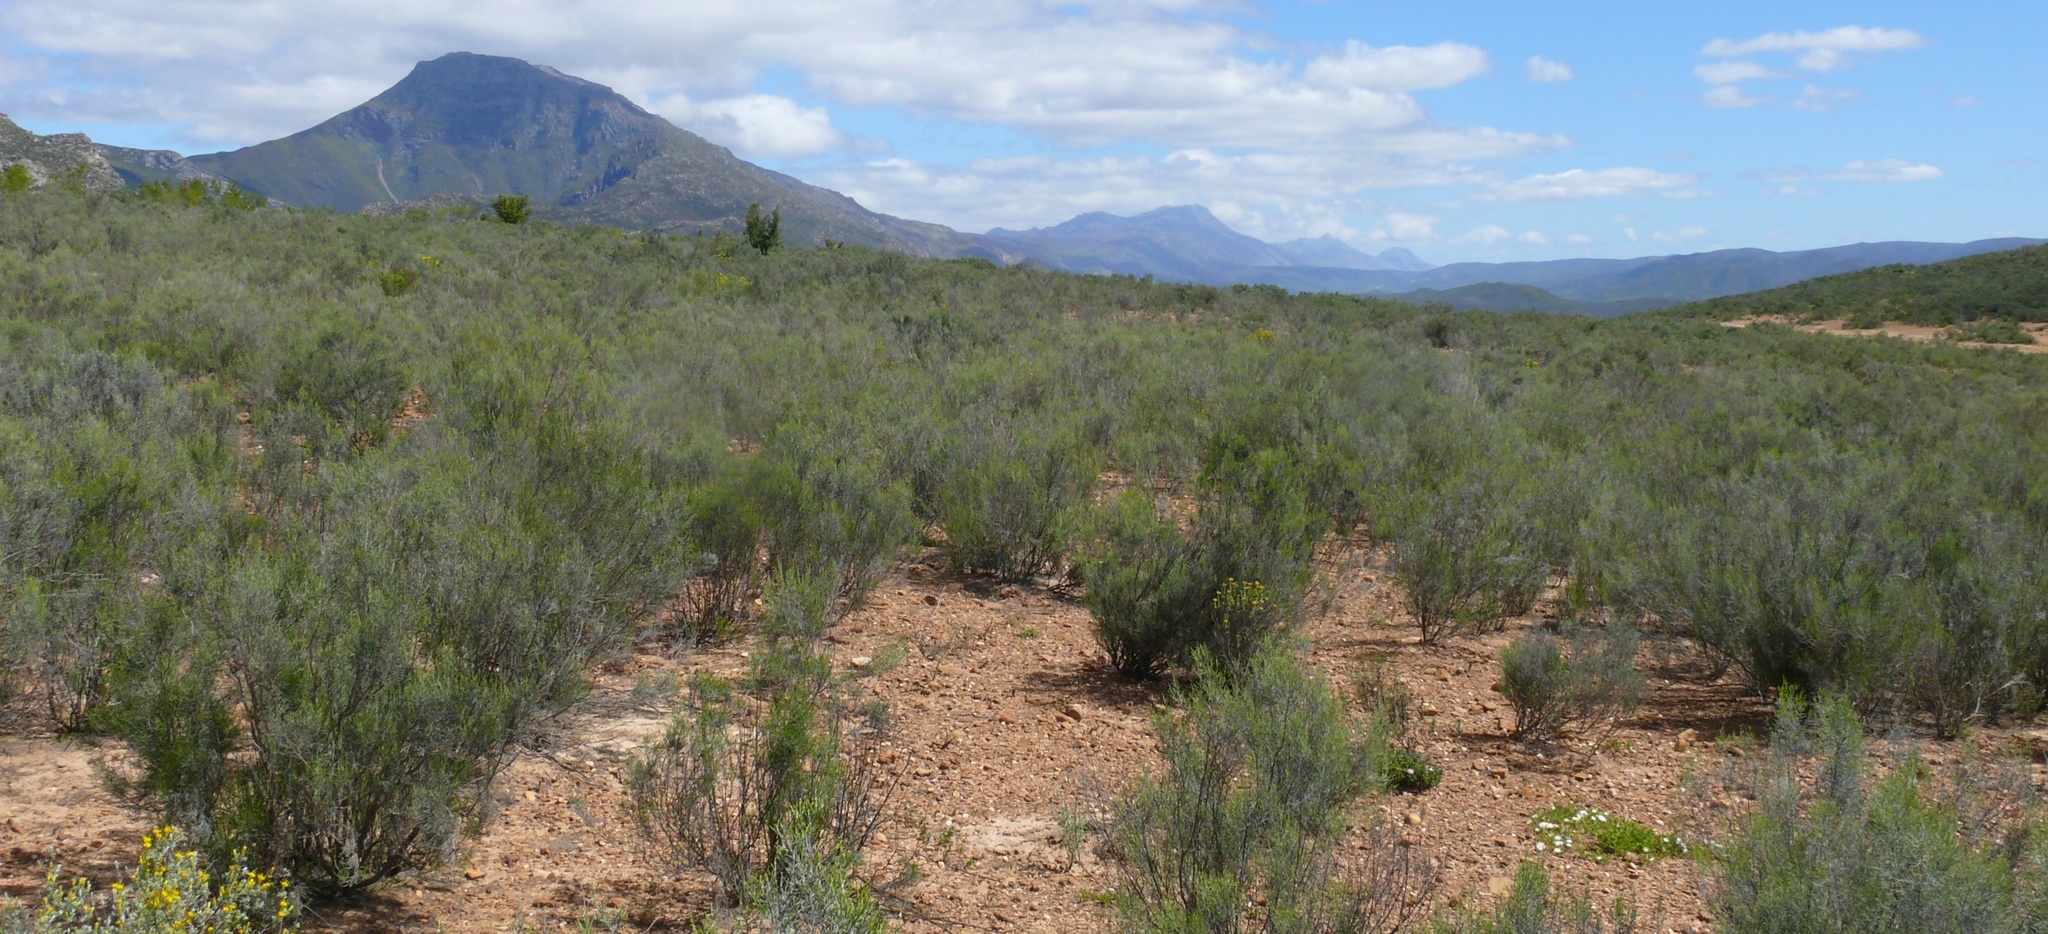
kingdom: Plantae
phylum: Tracheophyta
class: Magnoliopsida
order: Asterales
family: Asteraceae
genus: Dicerothamnus
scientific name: Dicerothamnus rhinocerotis
